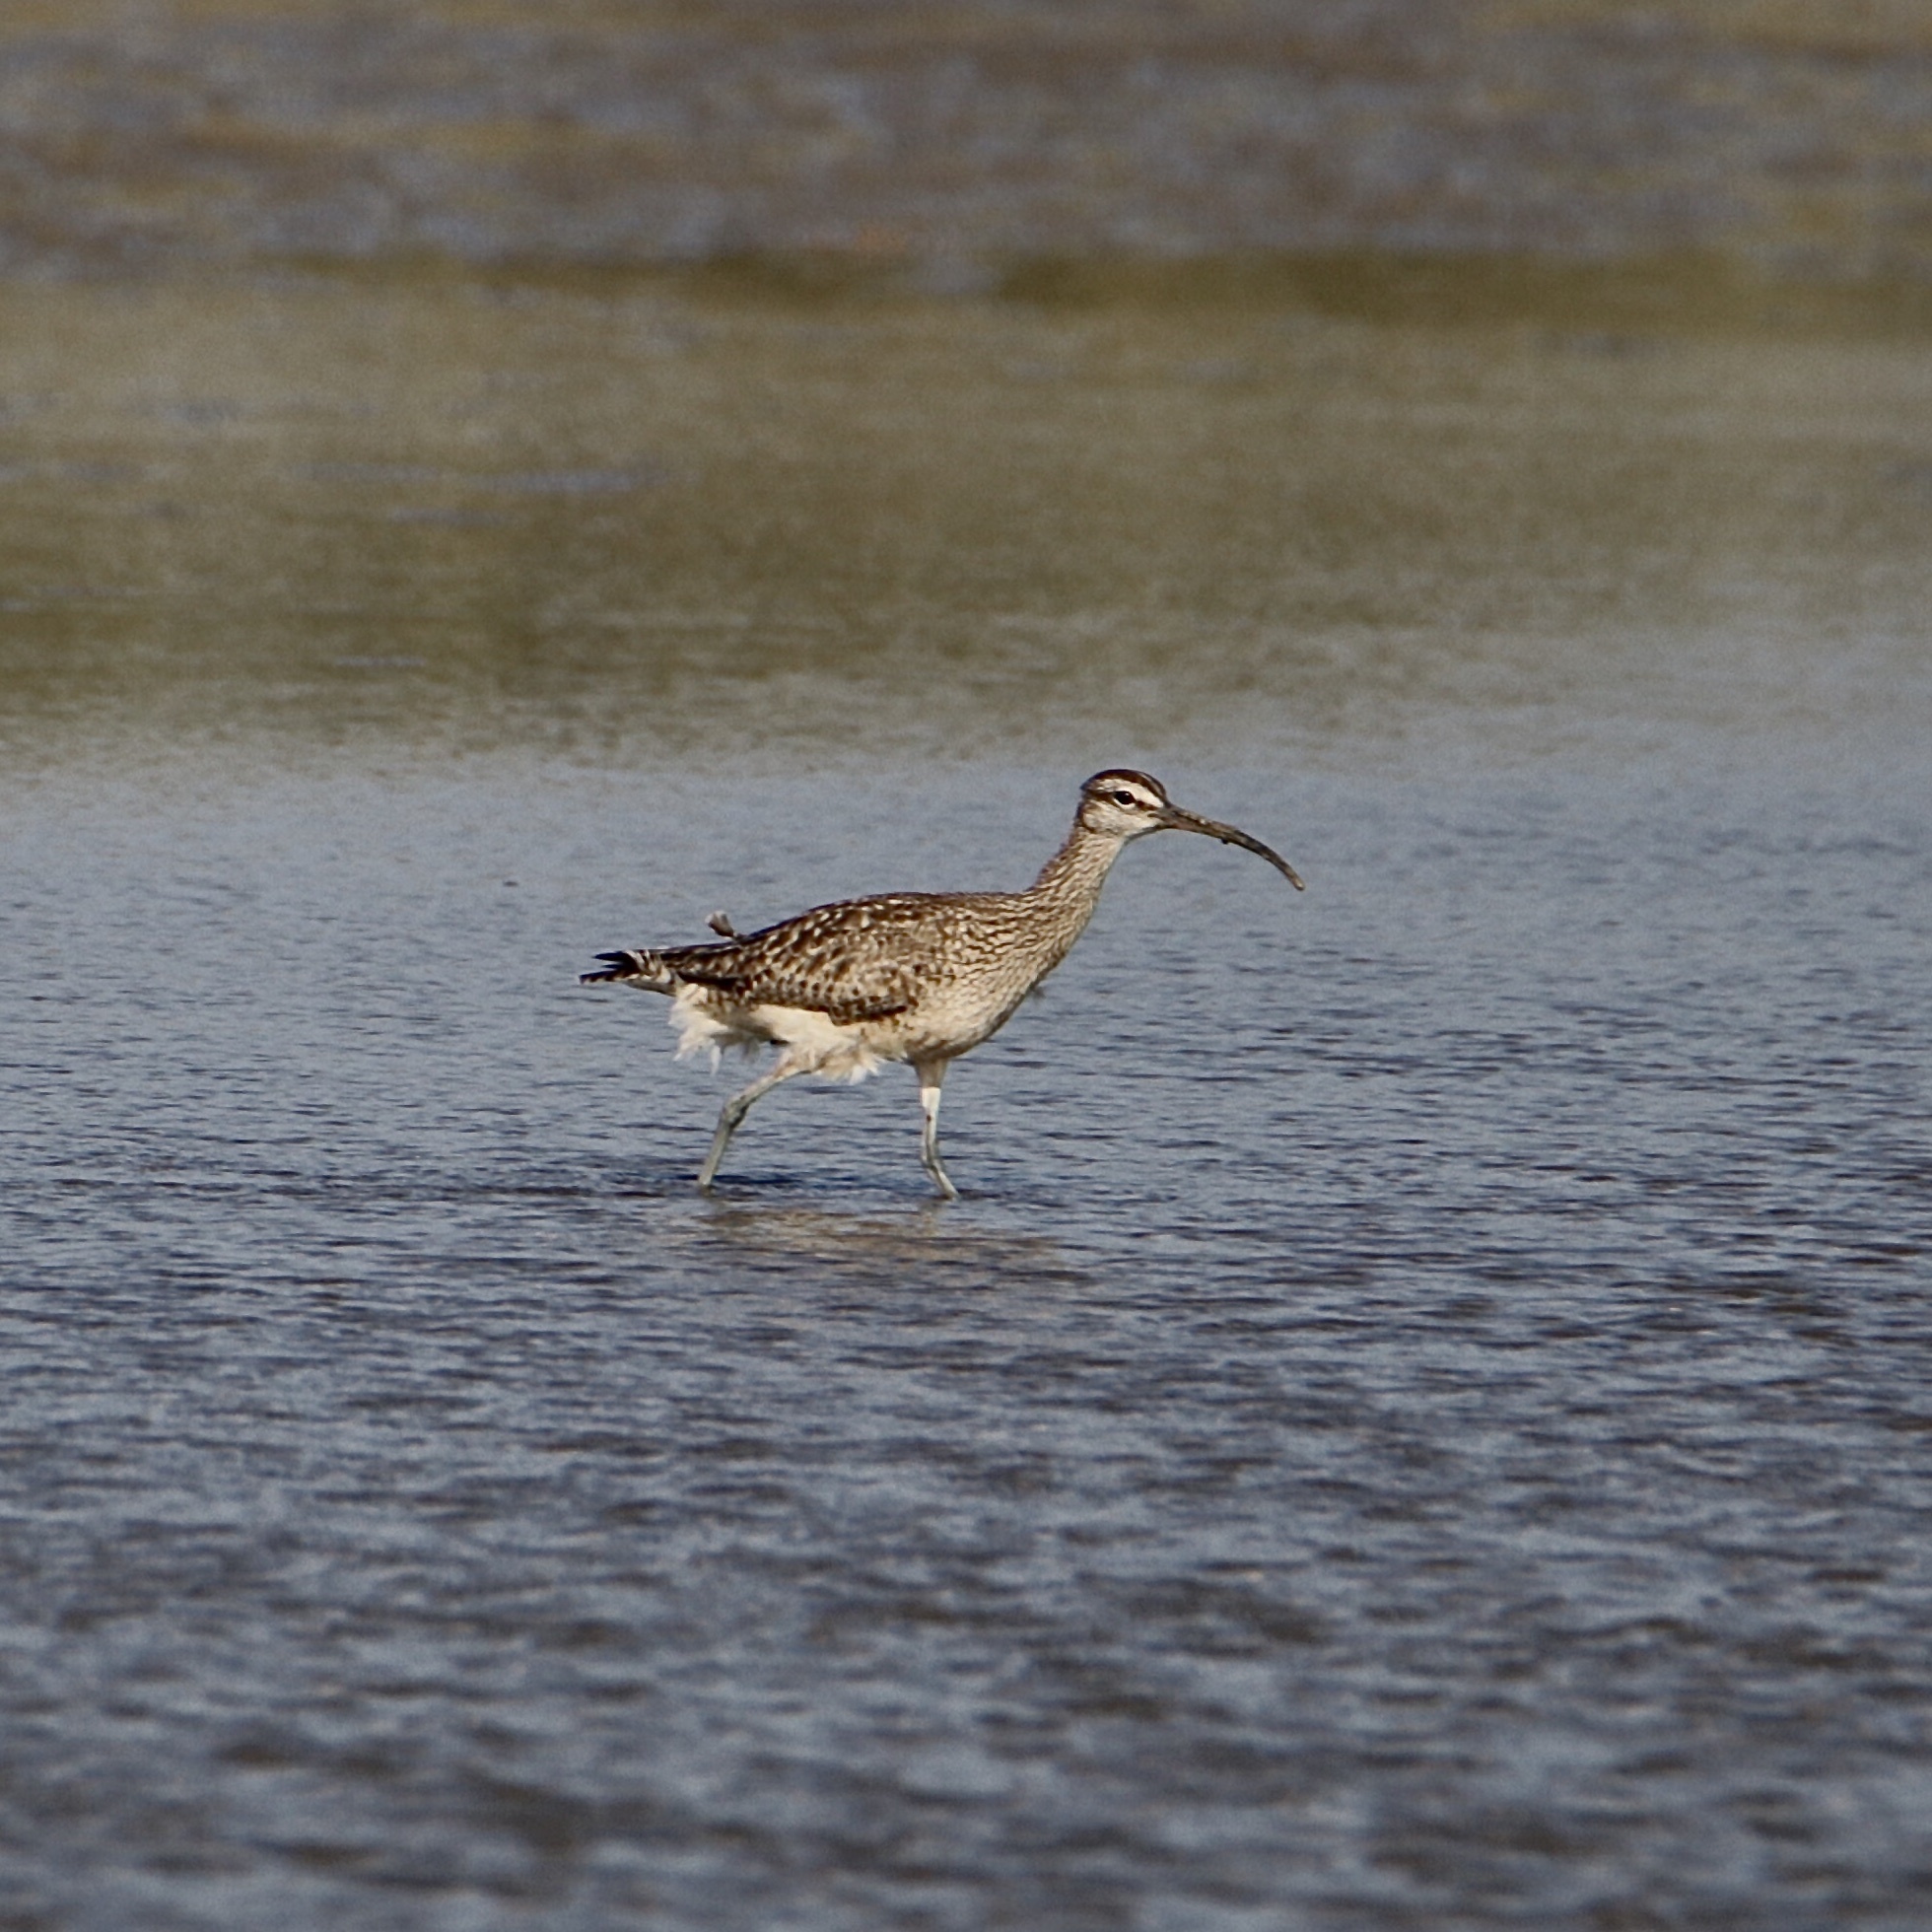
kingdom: Animalia
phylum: Chordata
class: Aves
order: Charadriiformes
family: Scolopacidae
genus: Numenius
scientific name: Numenius phaeopus
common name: Whimbrel
